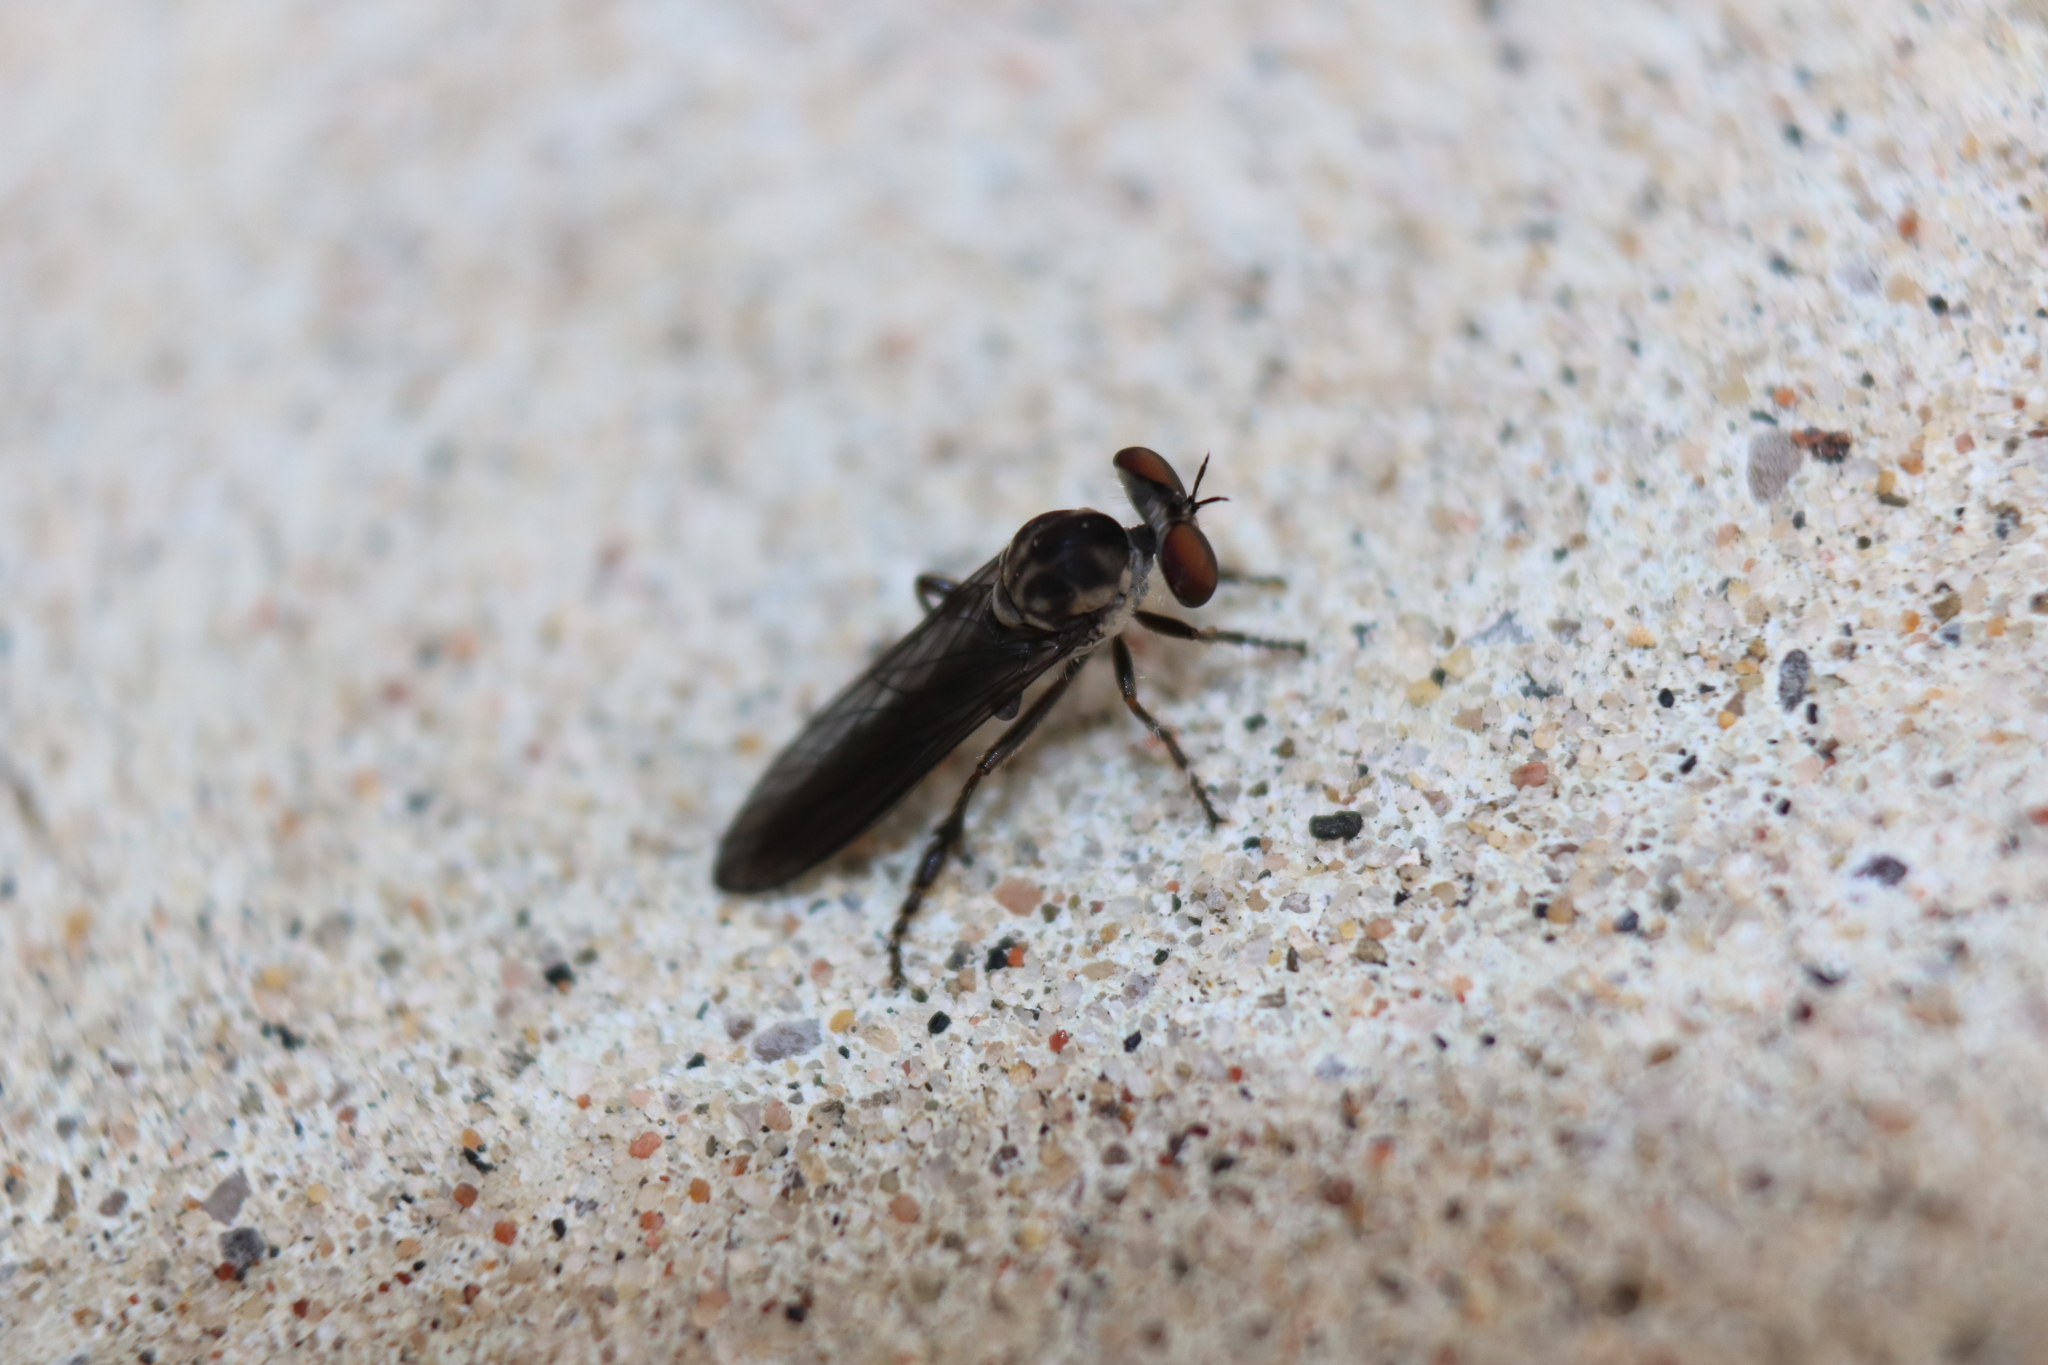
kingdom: Animalia
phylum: Arthropoda
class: Insecta
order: Diptera
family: Asilidae
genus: Holcocephala
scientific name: Holcocephala calva
